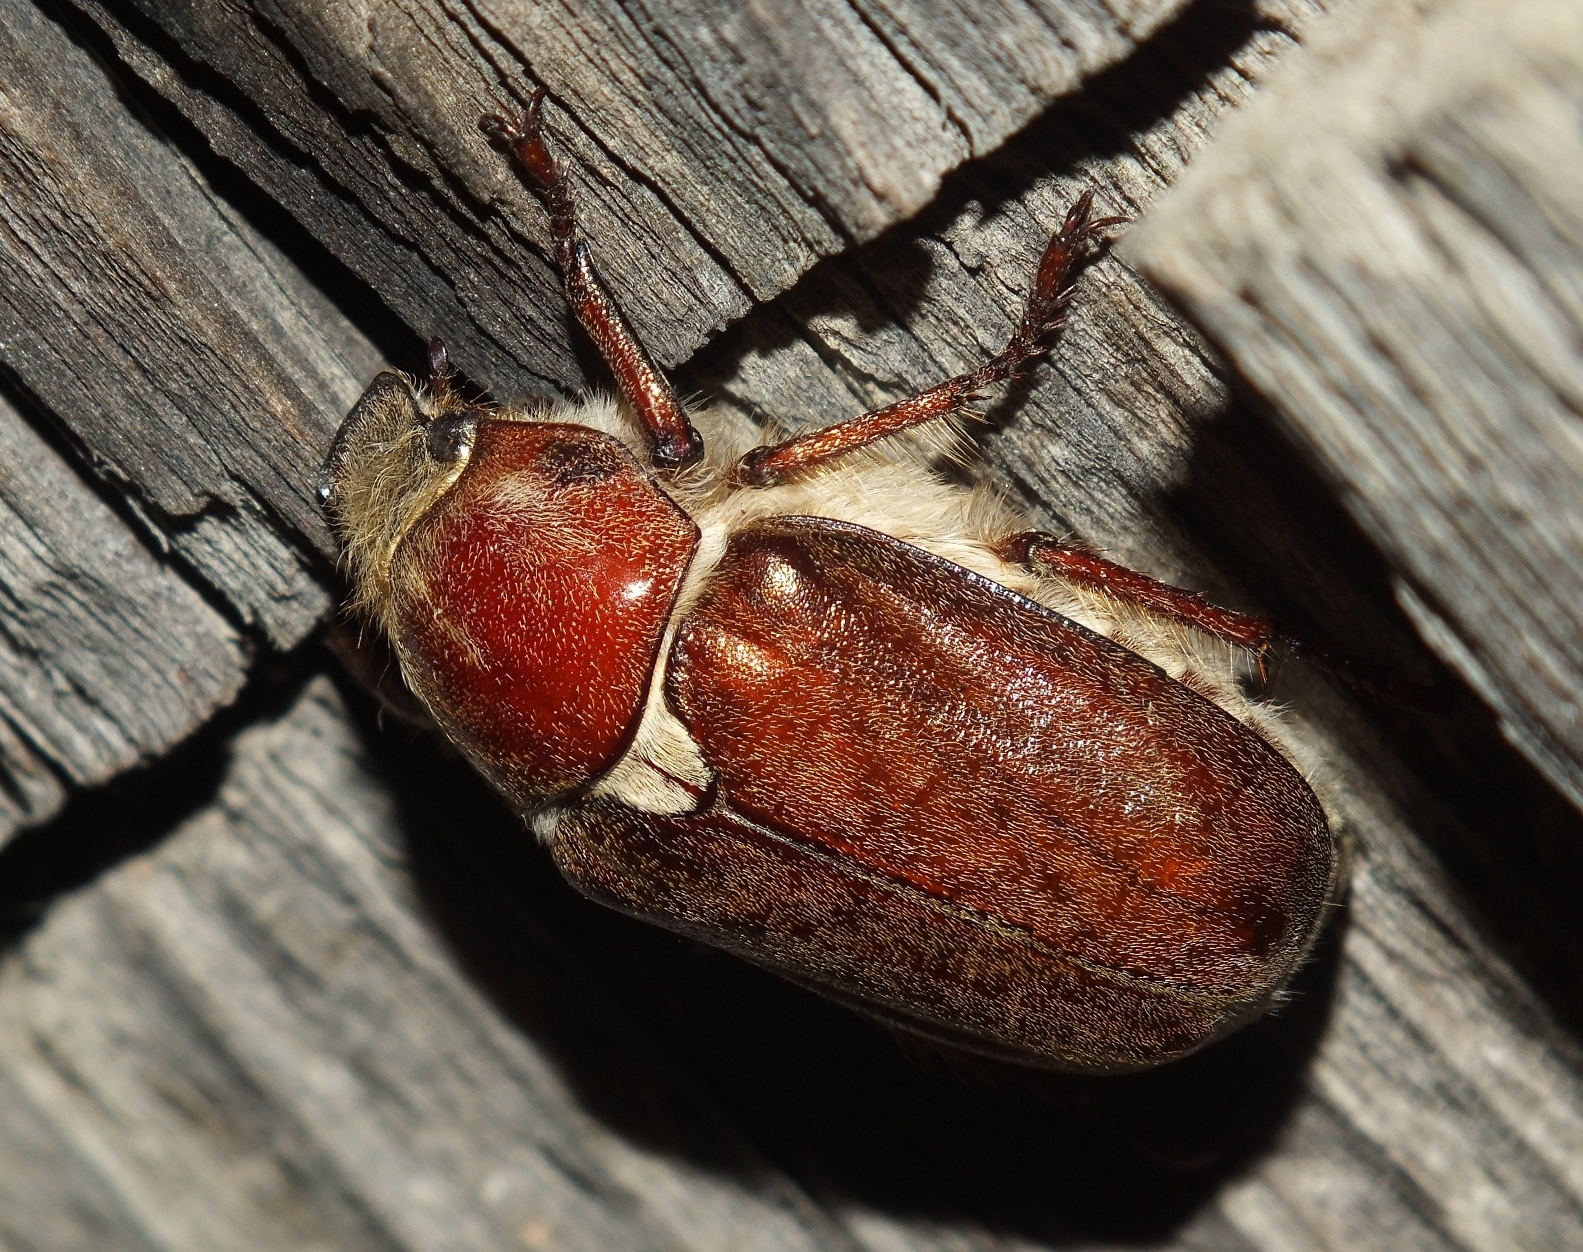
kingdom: Animalia
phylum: Arthropoda
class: Insecta
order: Coleoptera
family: Scarabaeidae
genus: Anoxia
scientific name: Anoxia pilosa
